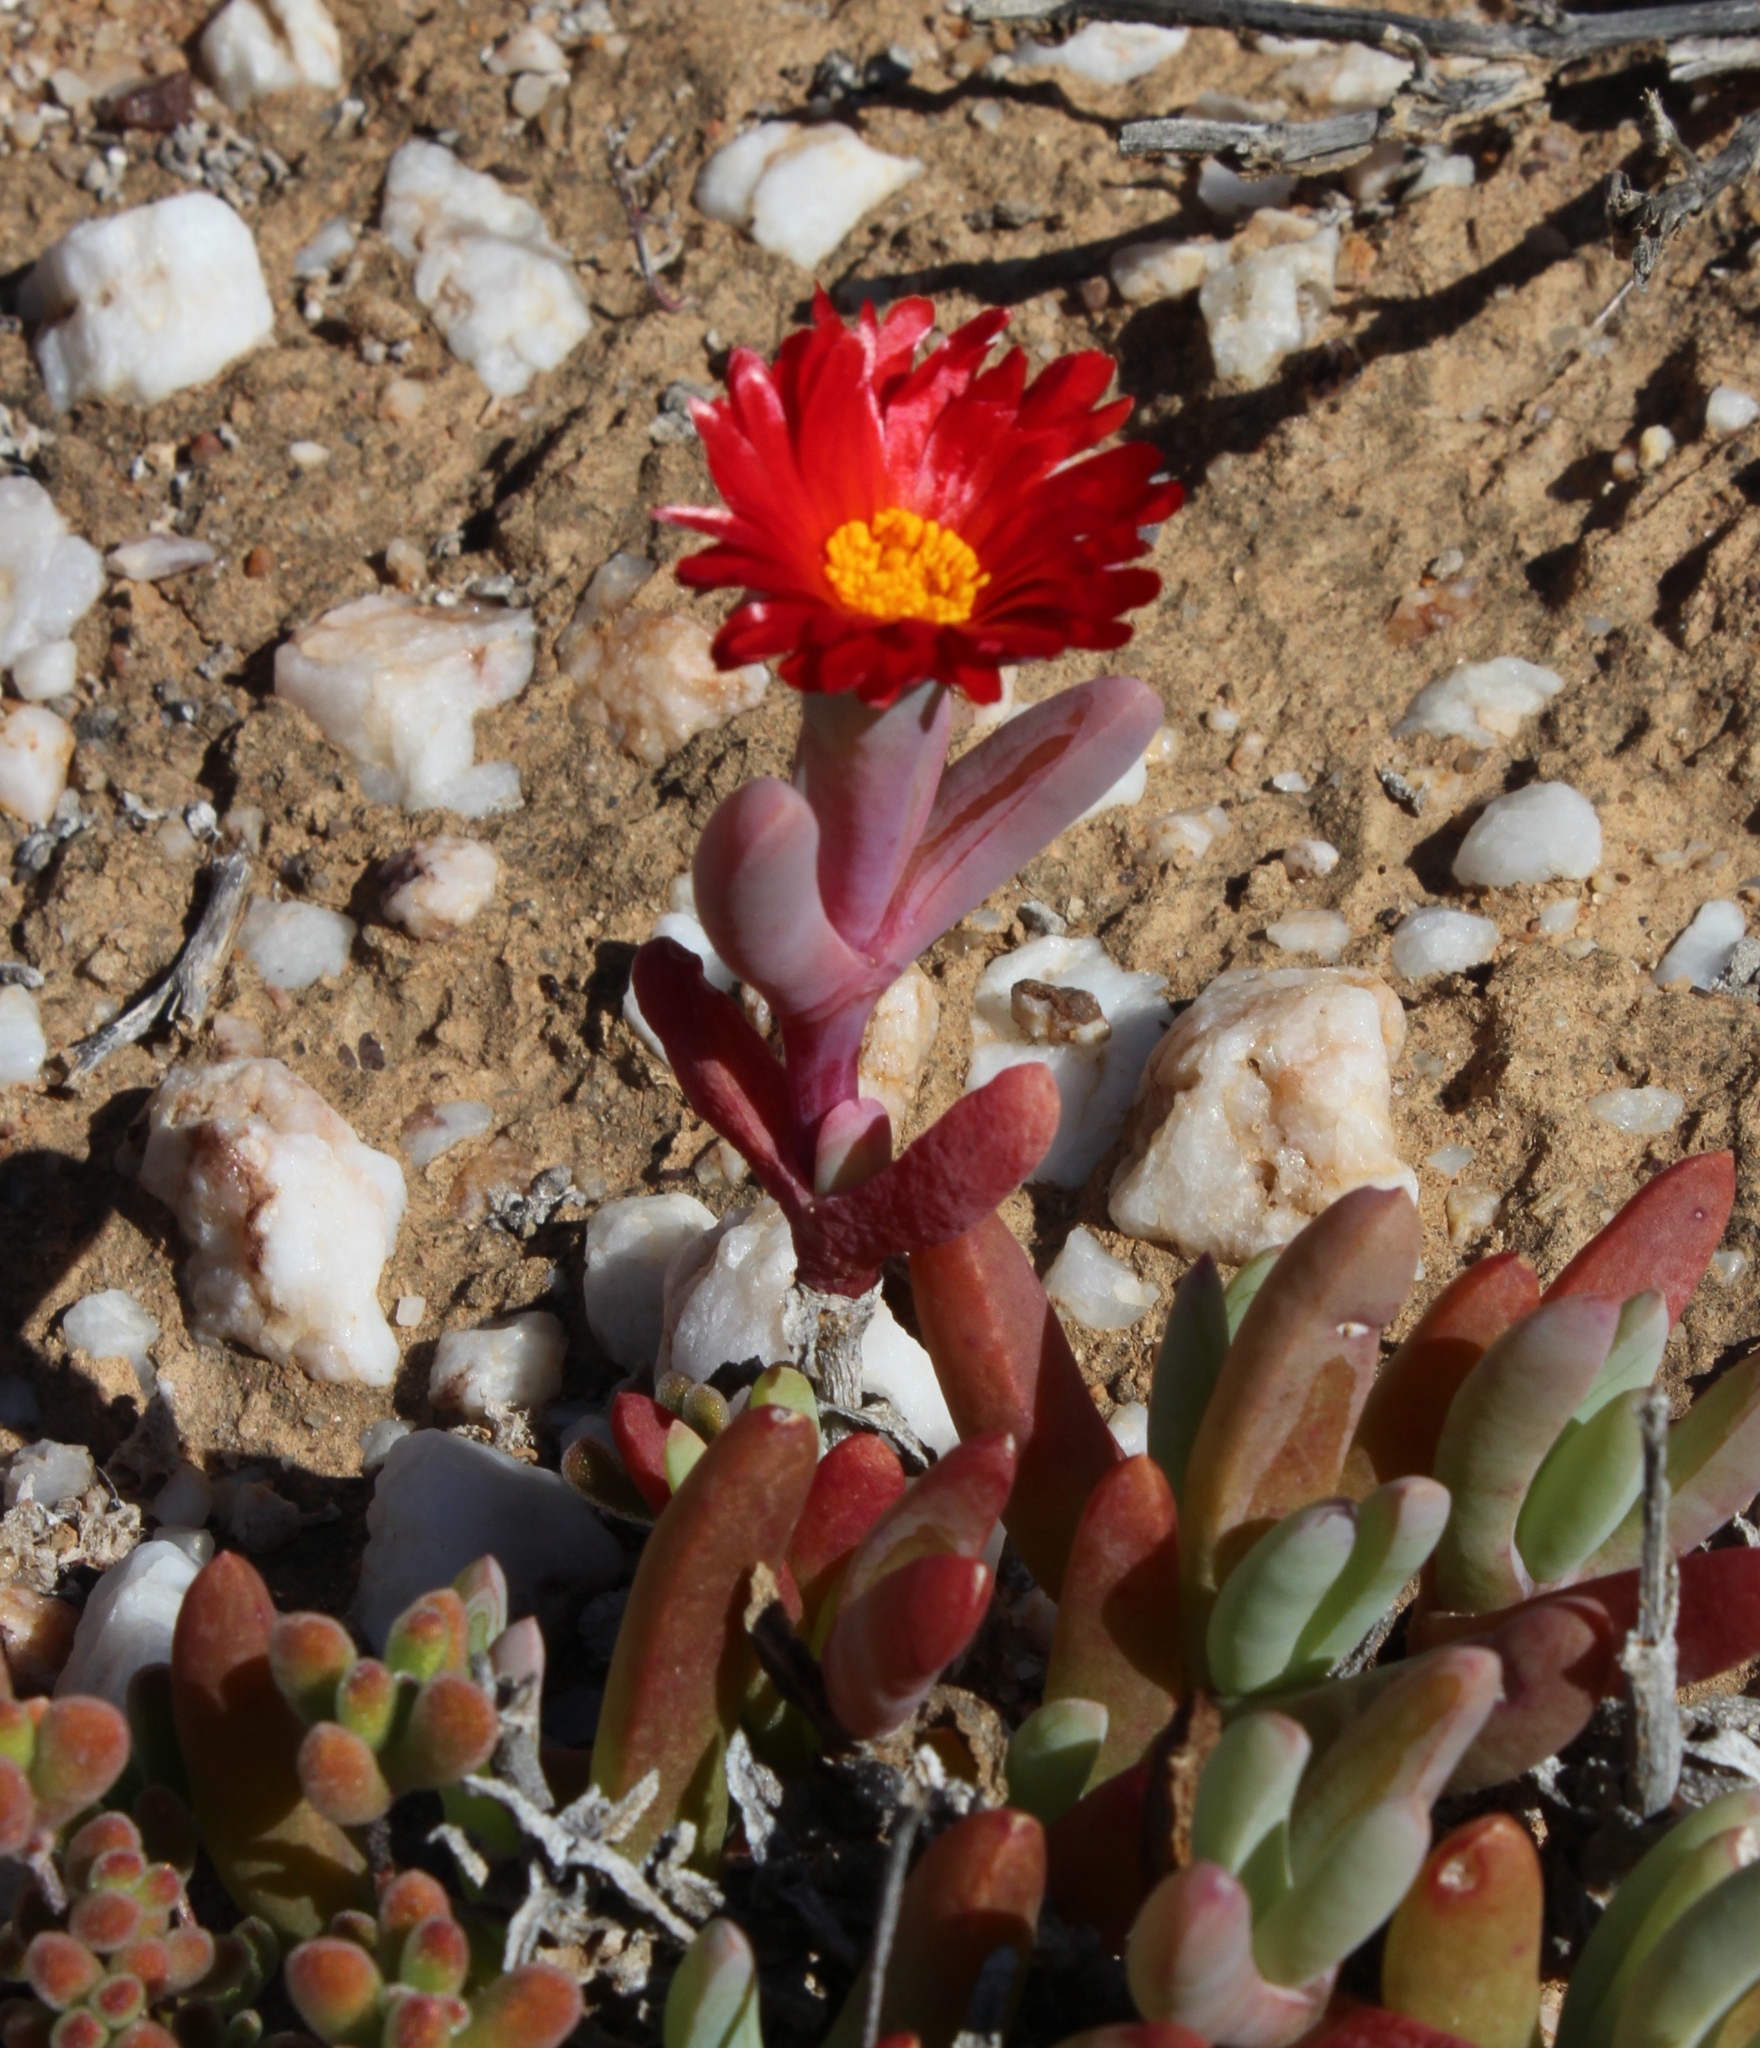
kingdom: Plantae
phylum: Tracheophyta
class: Magnoliopsida
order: Caryophyllales
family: Aizoaceae
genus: Malephora
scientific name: Malephora purpureocrocea
